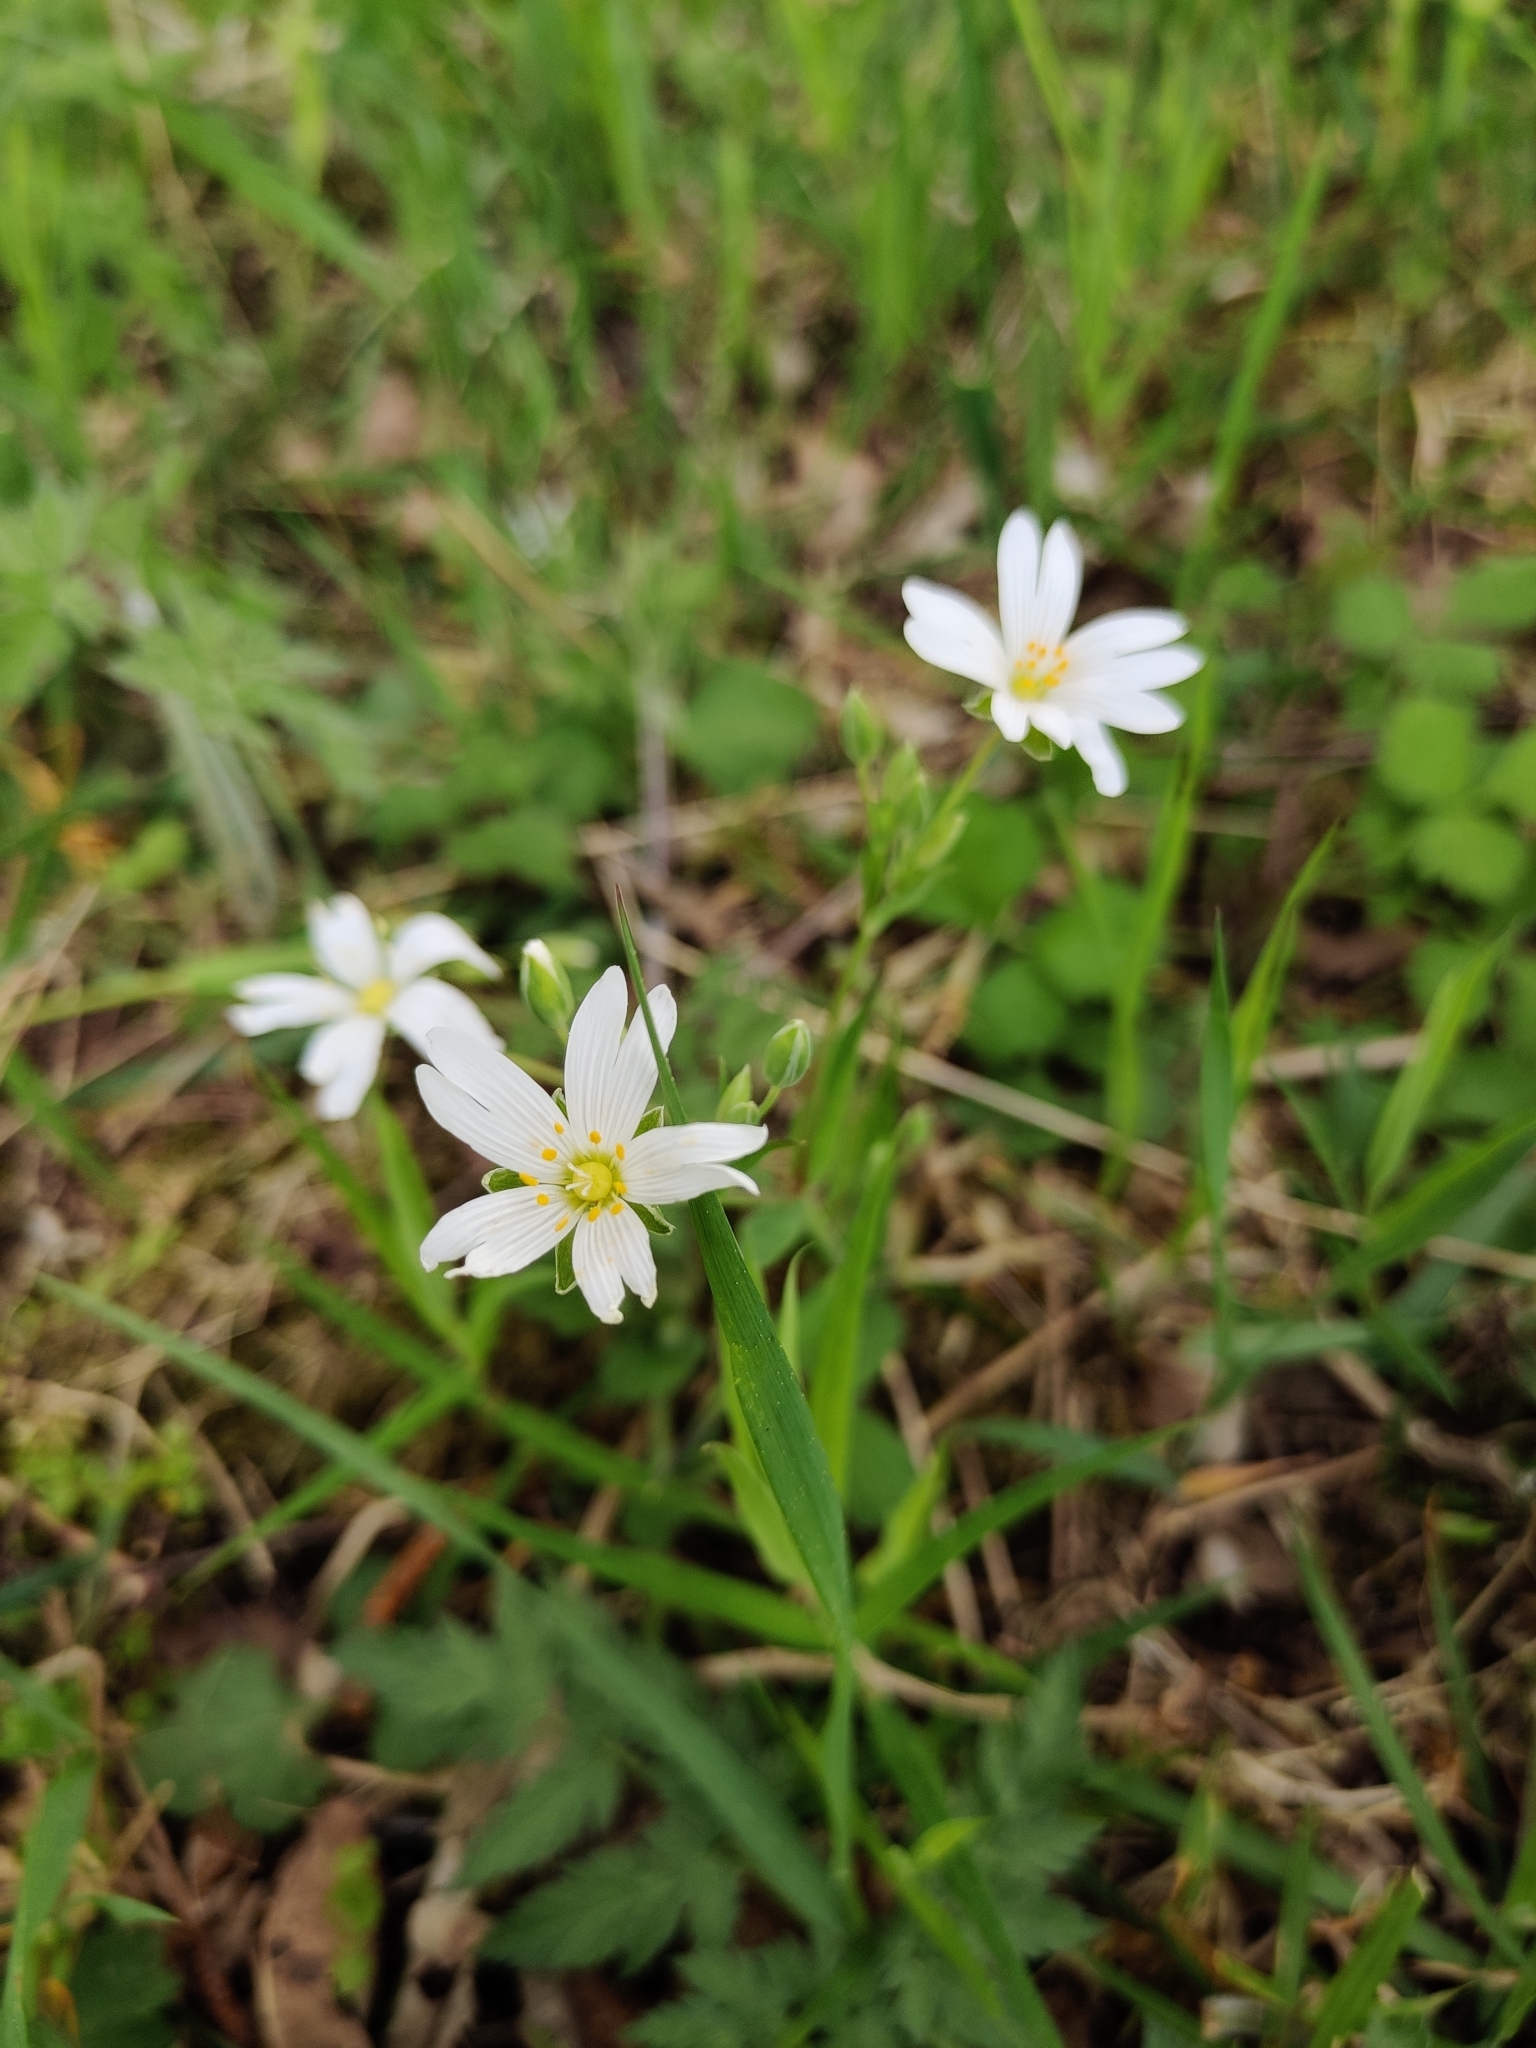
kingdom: Plantae
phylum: Tracheophyta
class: Magnoliopsida
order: Caryophyllales
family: Caryophyllaceae
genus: Rabelera
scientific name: Rabelera holostea
